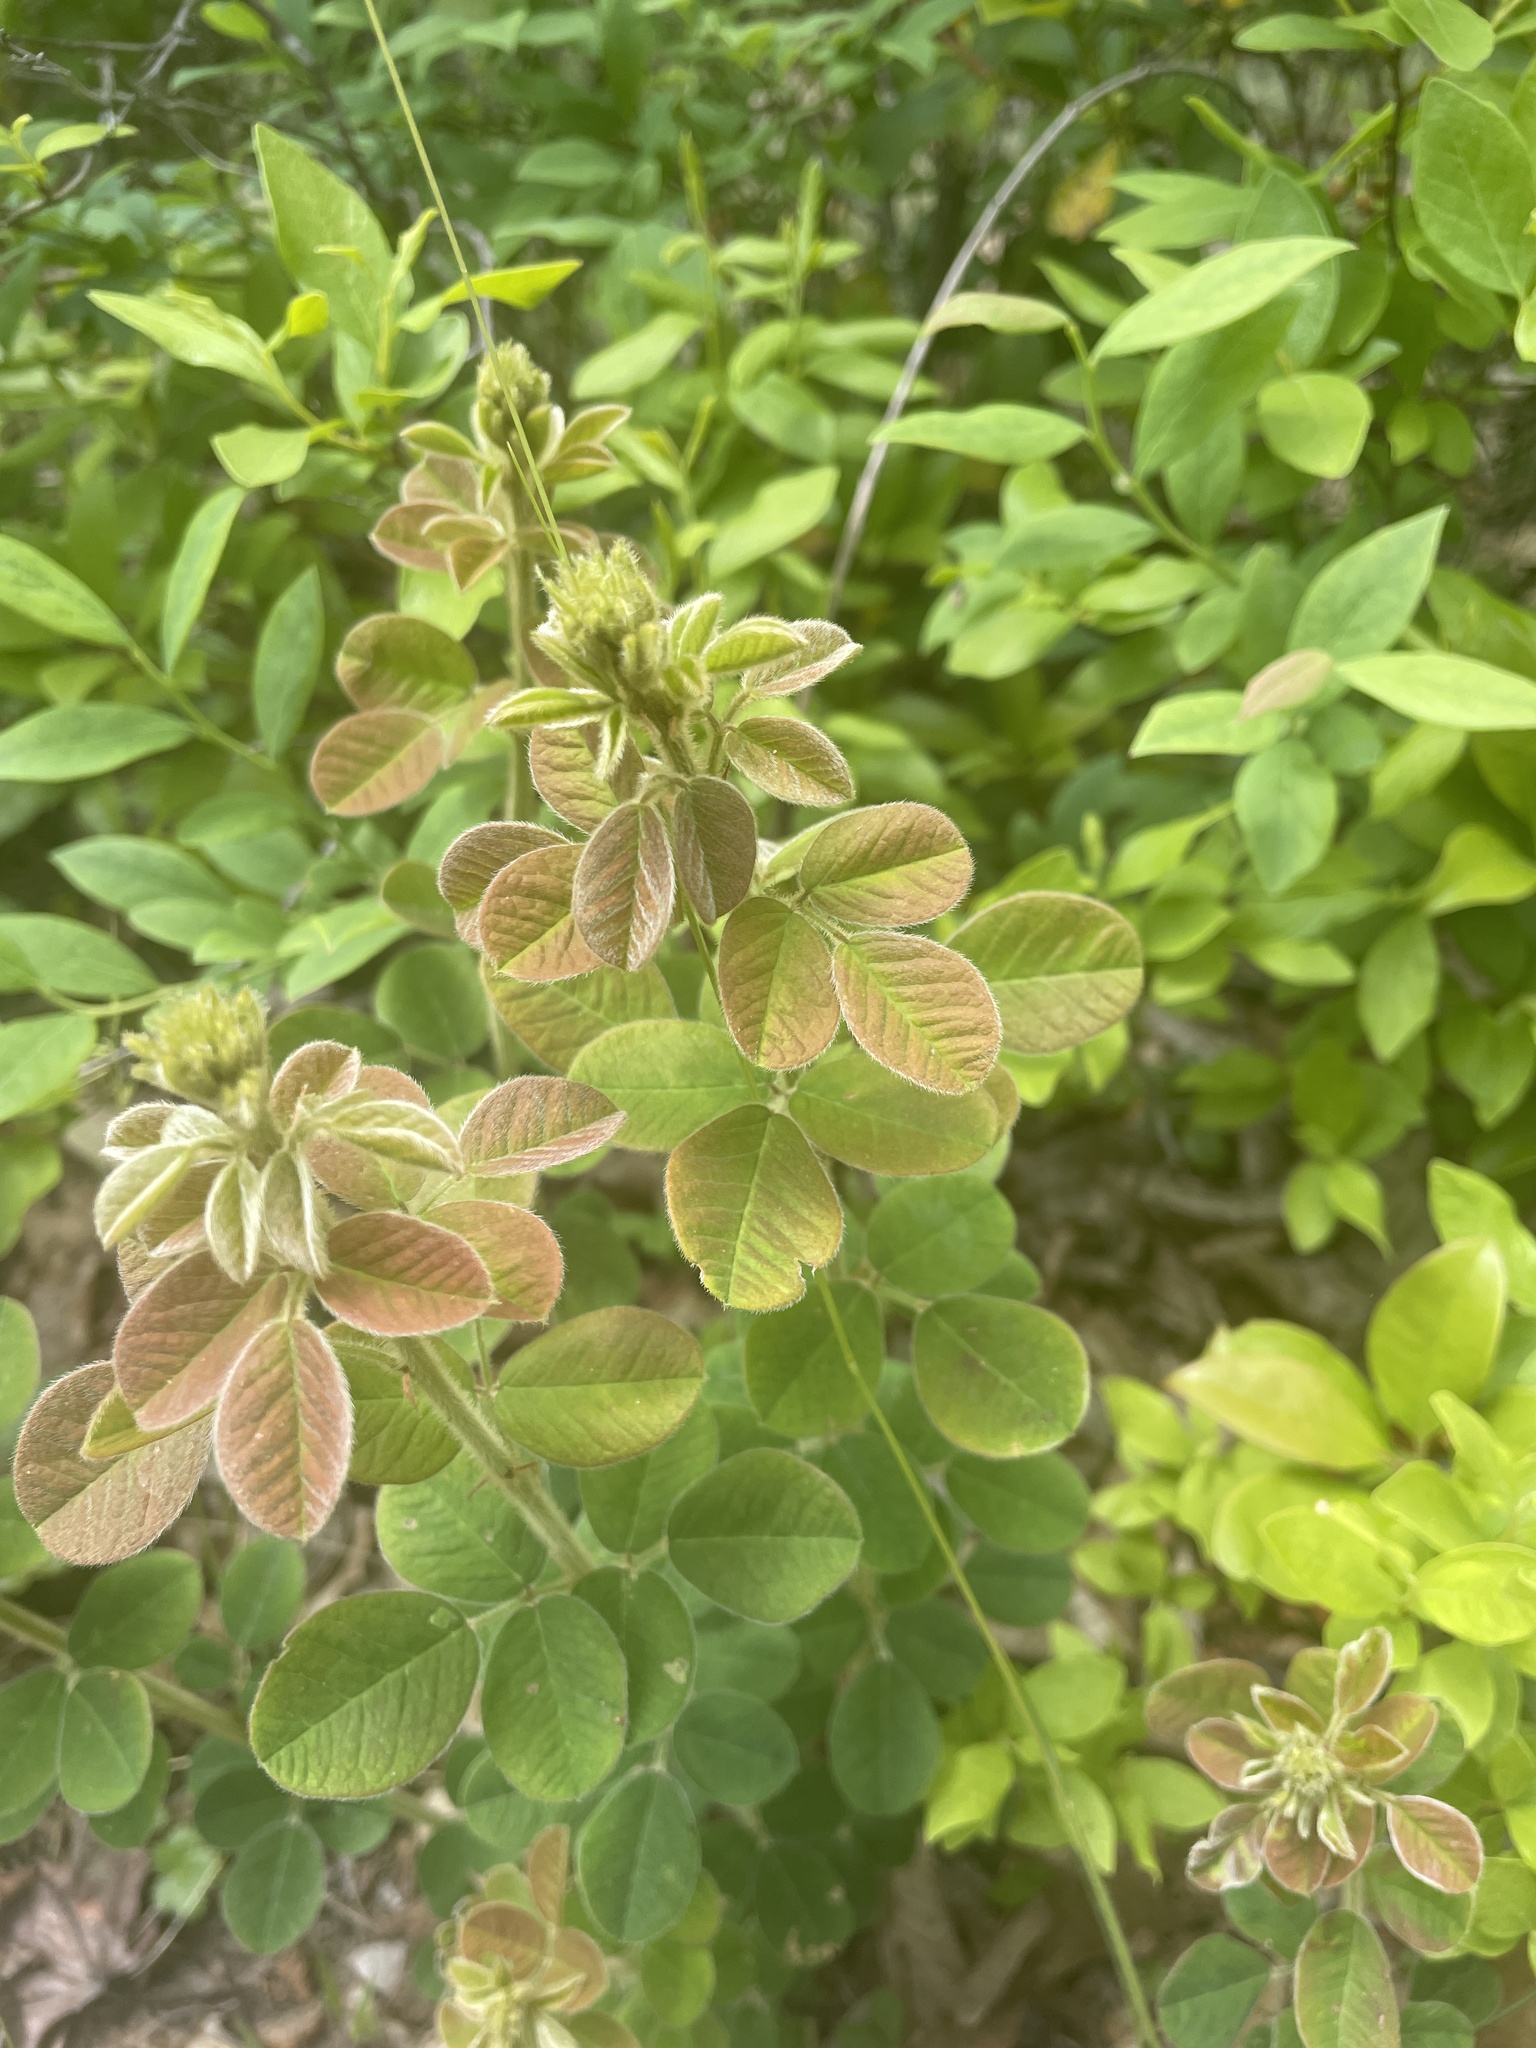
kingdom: Plantae
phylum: Tracheophyta
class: Magnoliopsida
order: Fabales
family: Fabaceae
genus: Lespedeza
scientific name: Lespedeza hirta
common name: Hairy lespedeza
